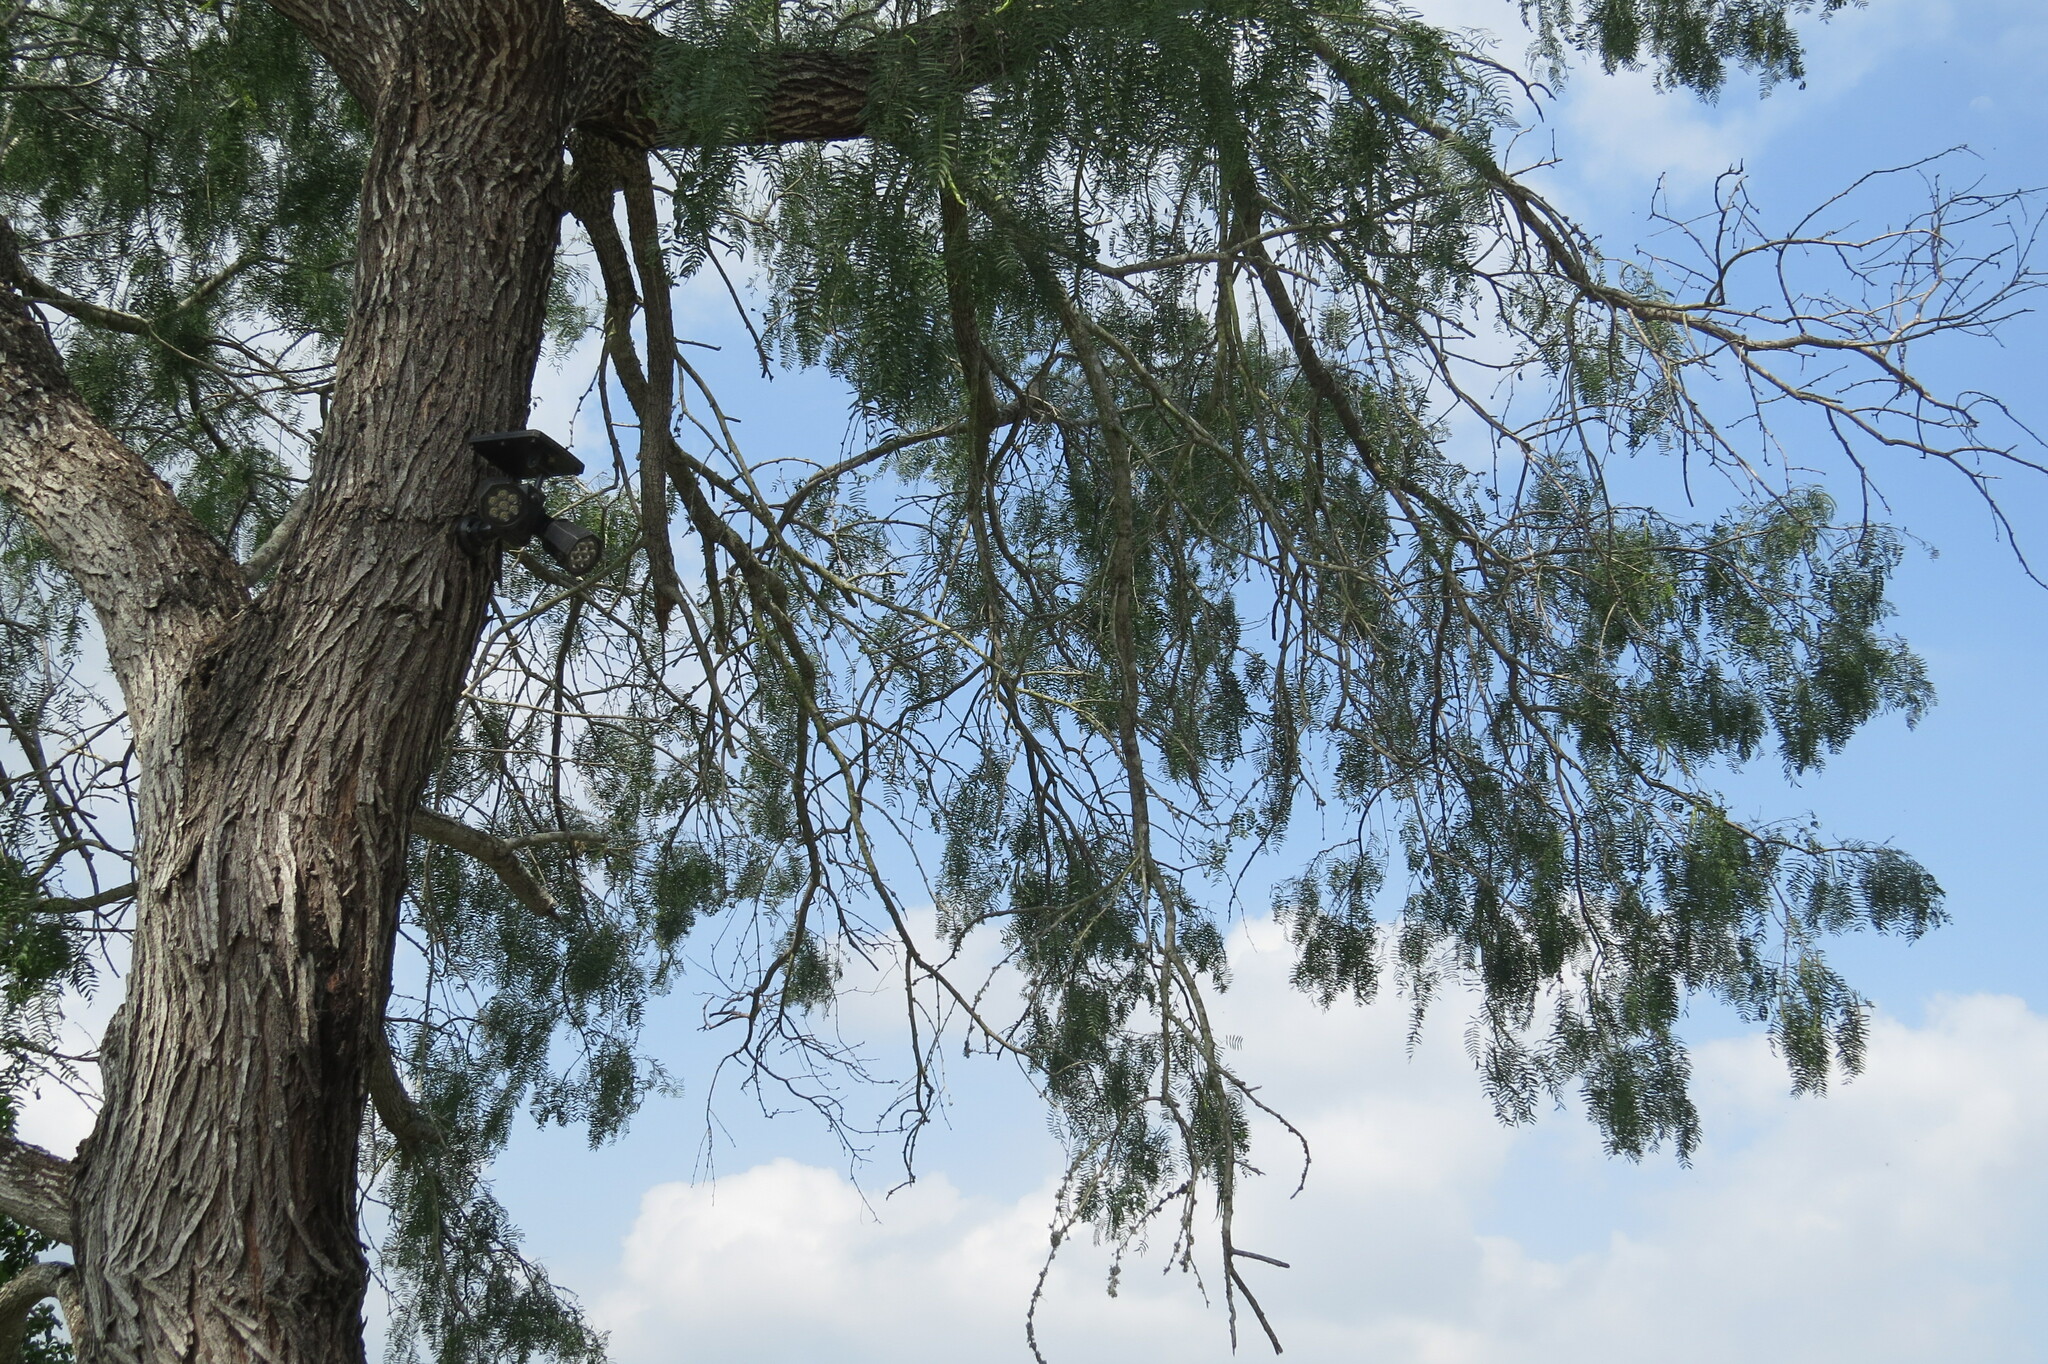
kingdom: Plantae
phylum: Tracheophyta
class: Magnoliopsida
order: Fabales
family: Fabaceae
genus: Prosopis
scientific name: Prosopis glandulosa
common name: Honey mesquite
